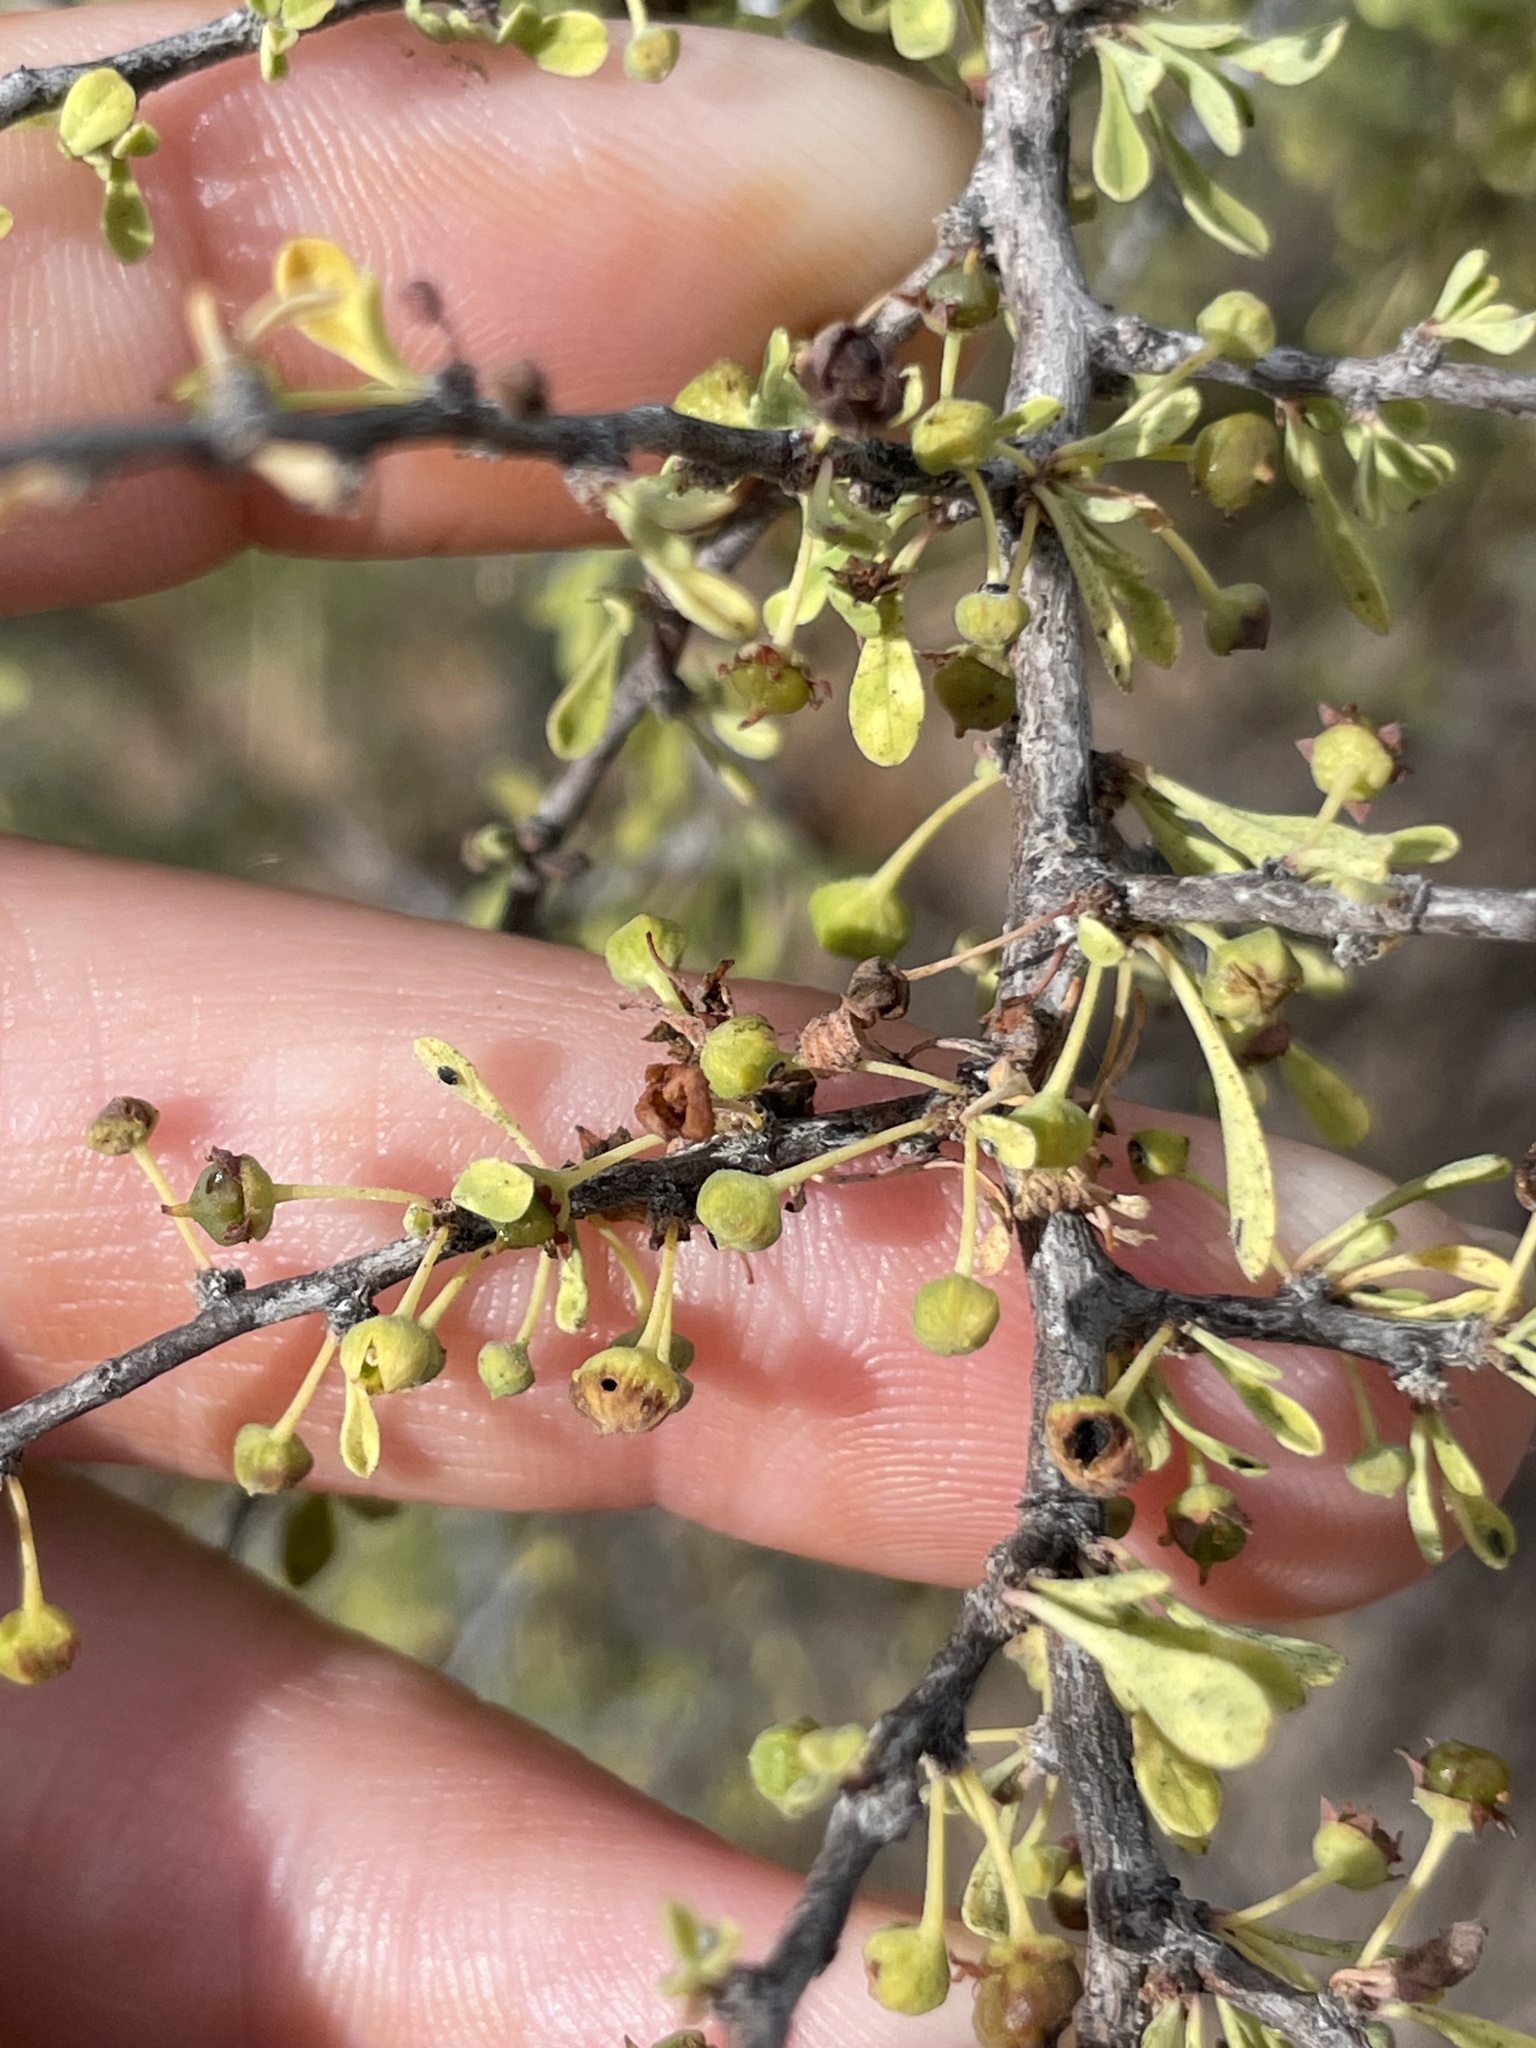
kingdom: Plantae
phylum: Tracheophyta
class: Magnoliopsida
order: Rosales
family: Rhamnaceae
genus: Condalia
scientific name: Condalia globosa
